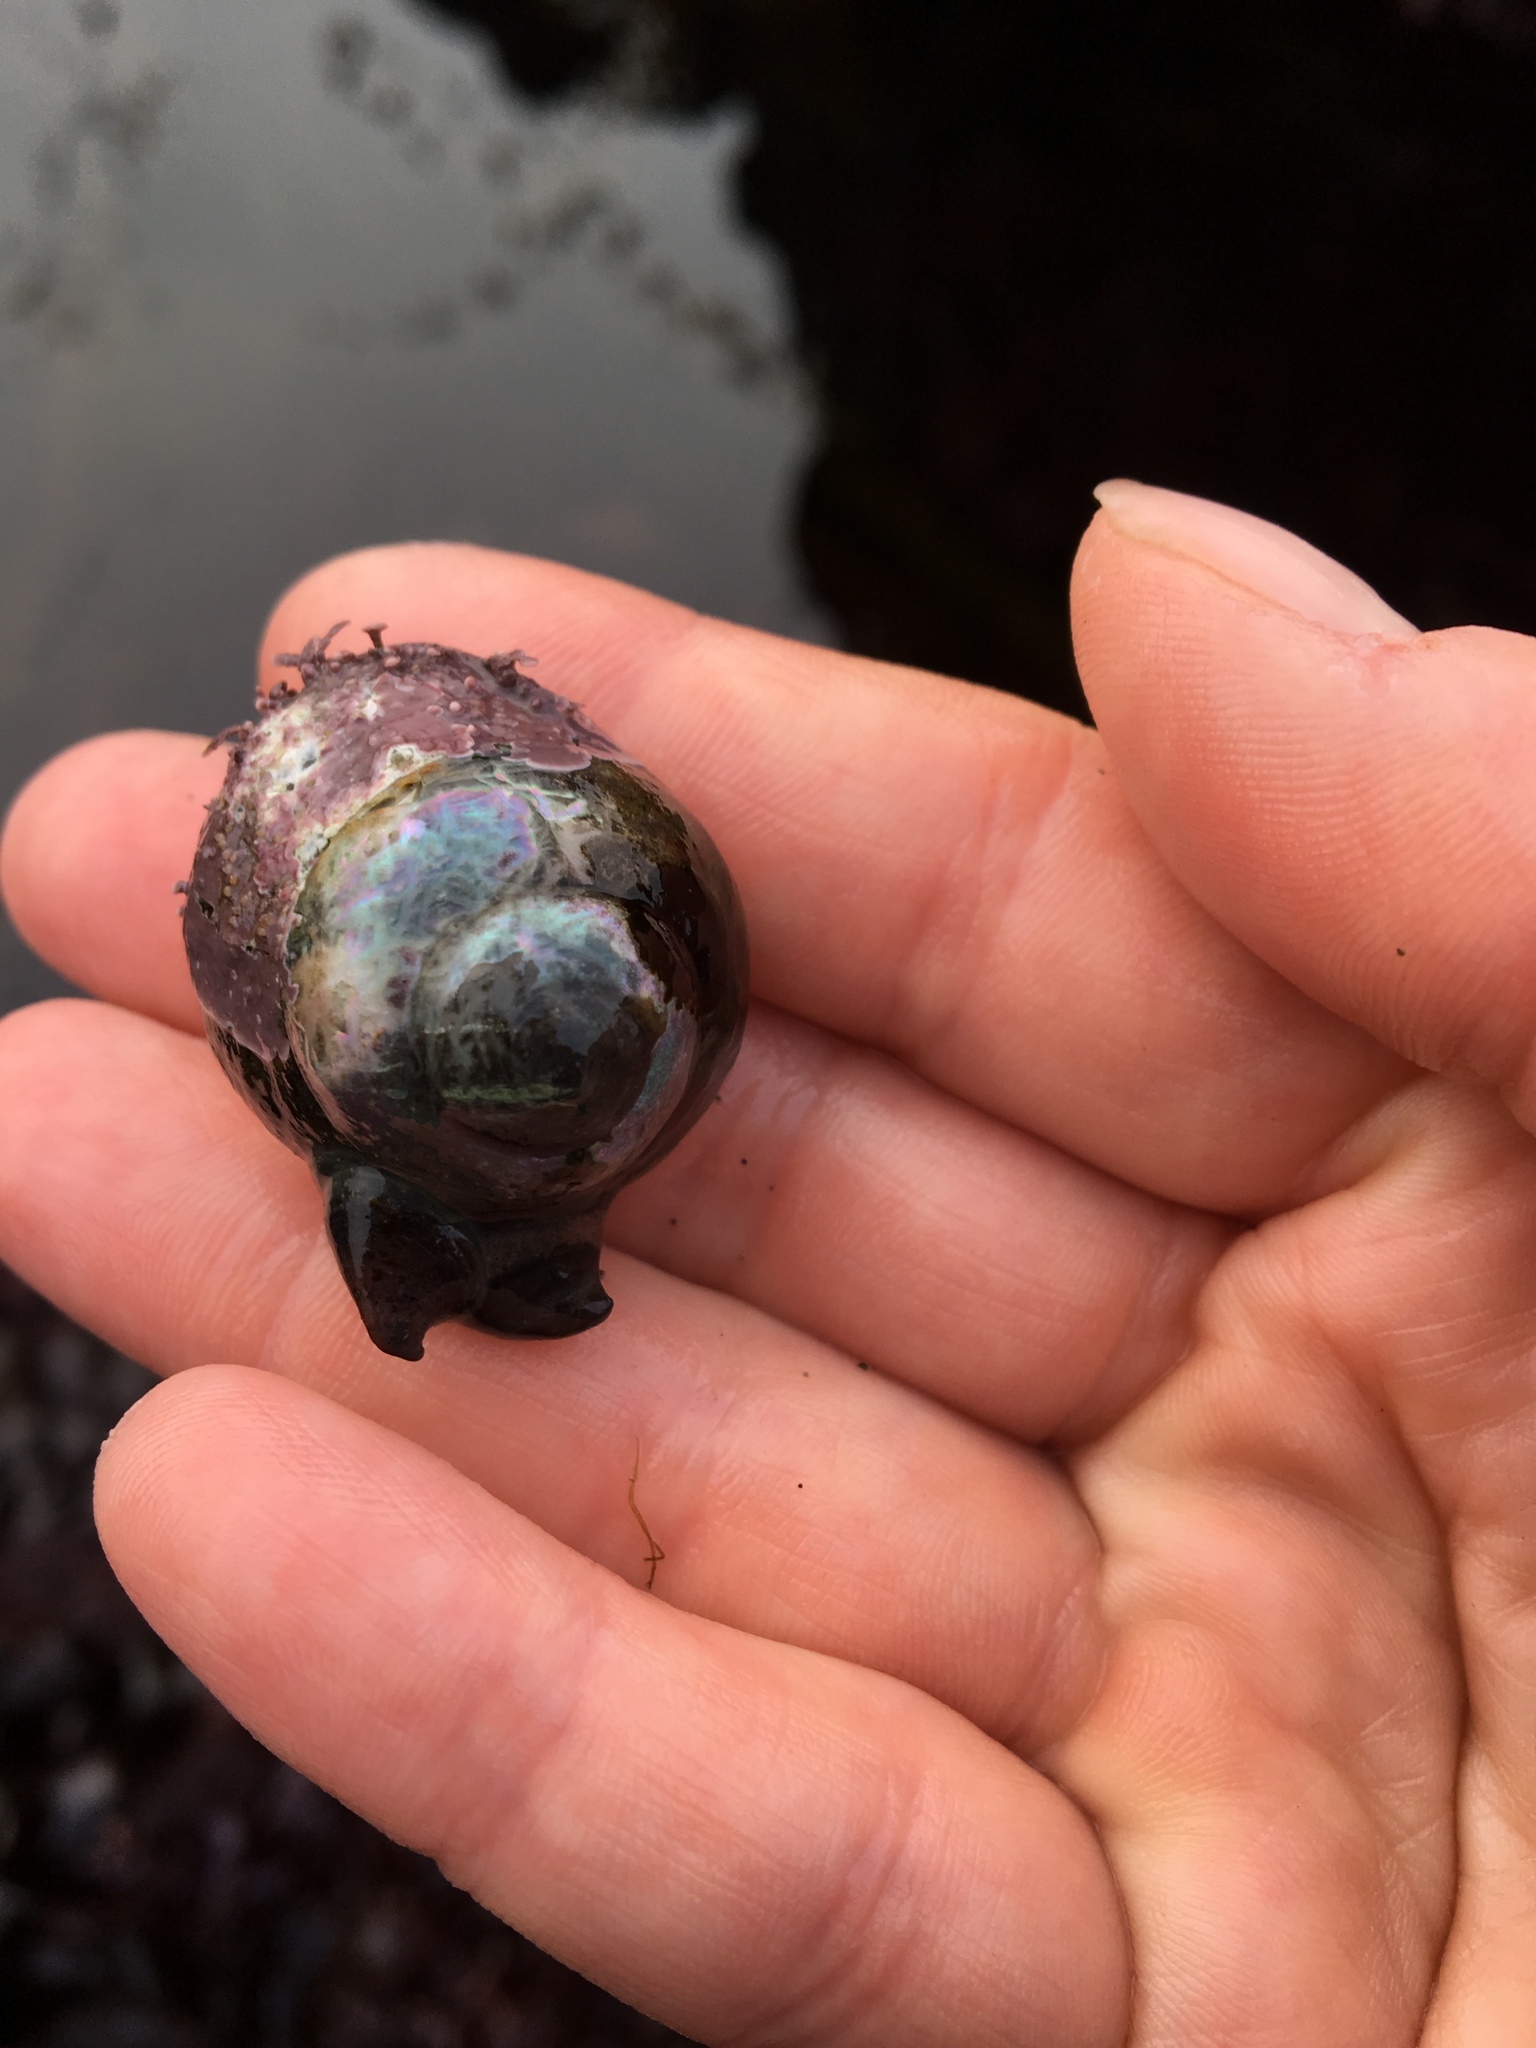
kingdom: Animalia
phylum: Mollusca
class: Gastropoda
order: Trochida
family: Tegulidae
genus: Tegula
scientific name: Tegula brunnea
